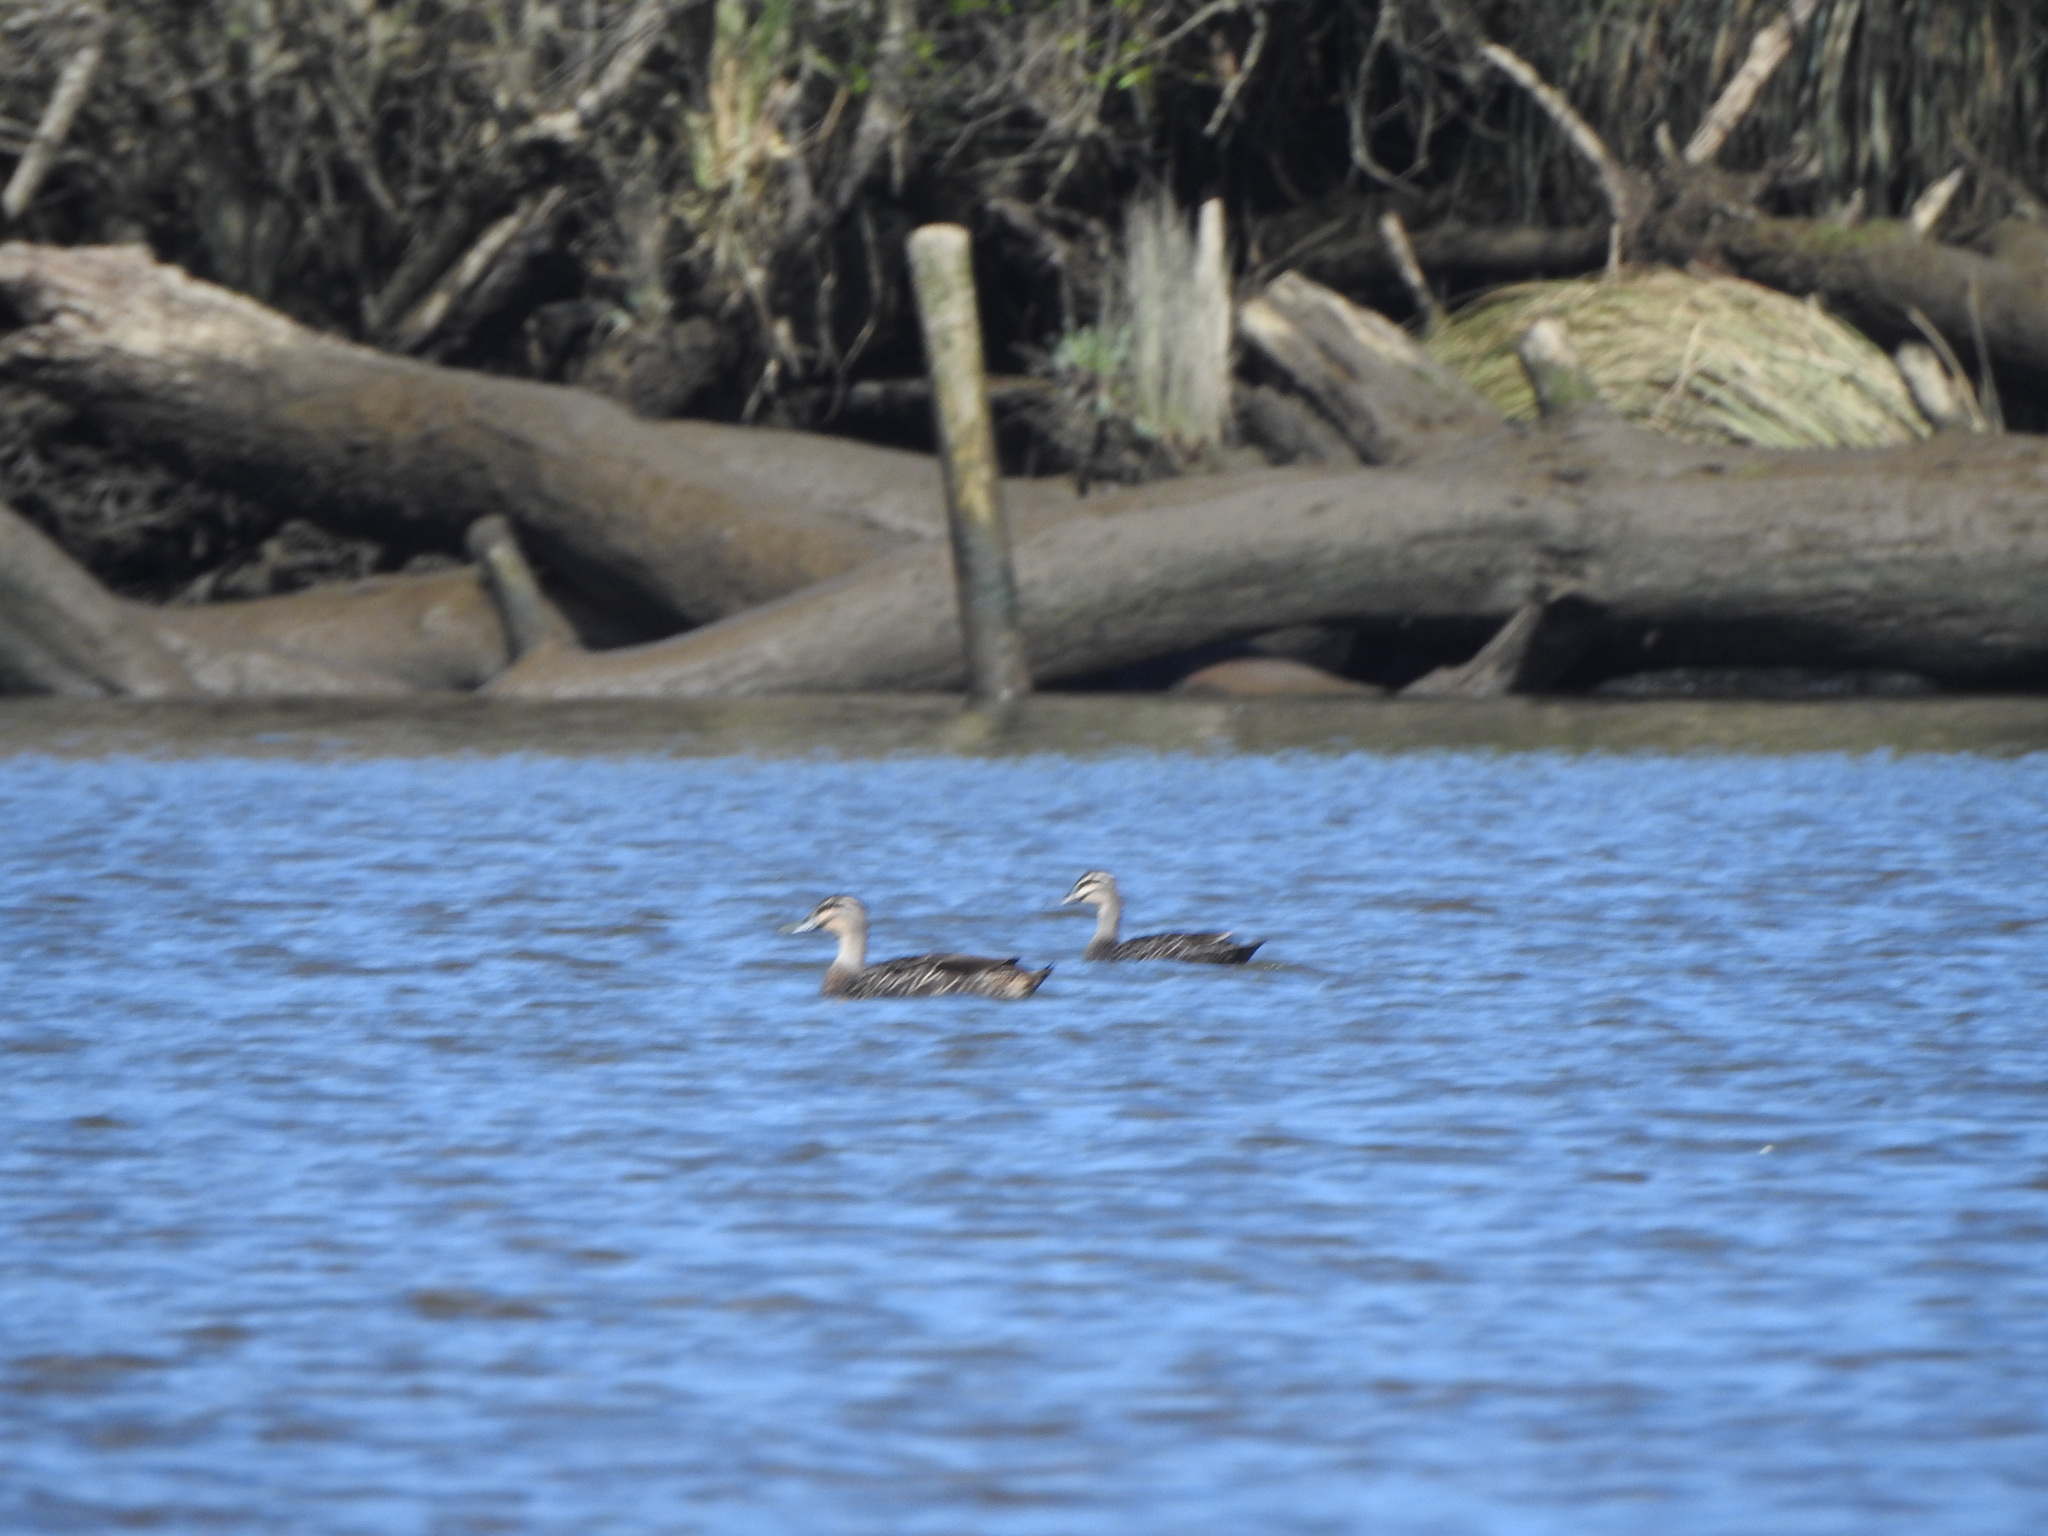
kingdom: Animalia
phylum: Chordata
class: Aves
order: Anseriformes
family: Anatidae
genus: Anas
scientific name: Anas
